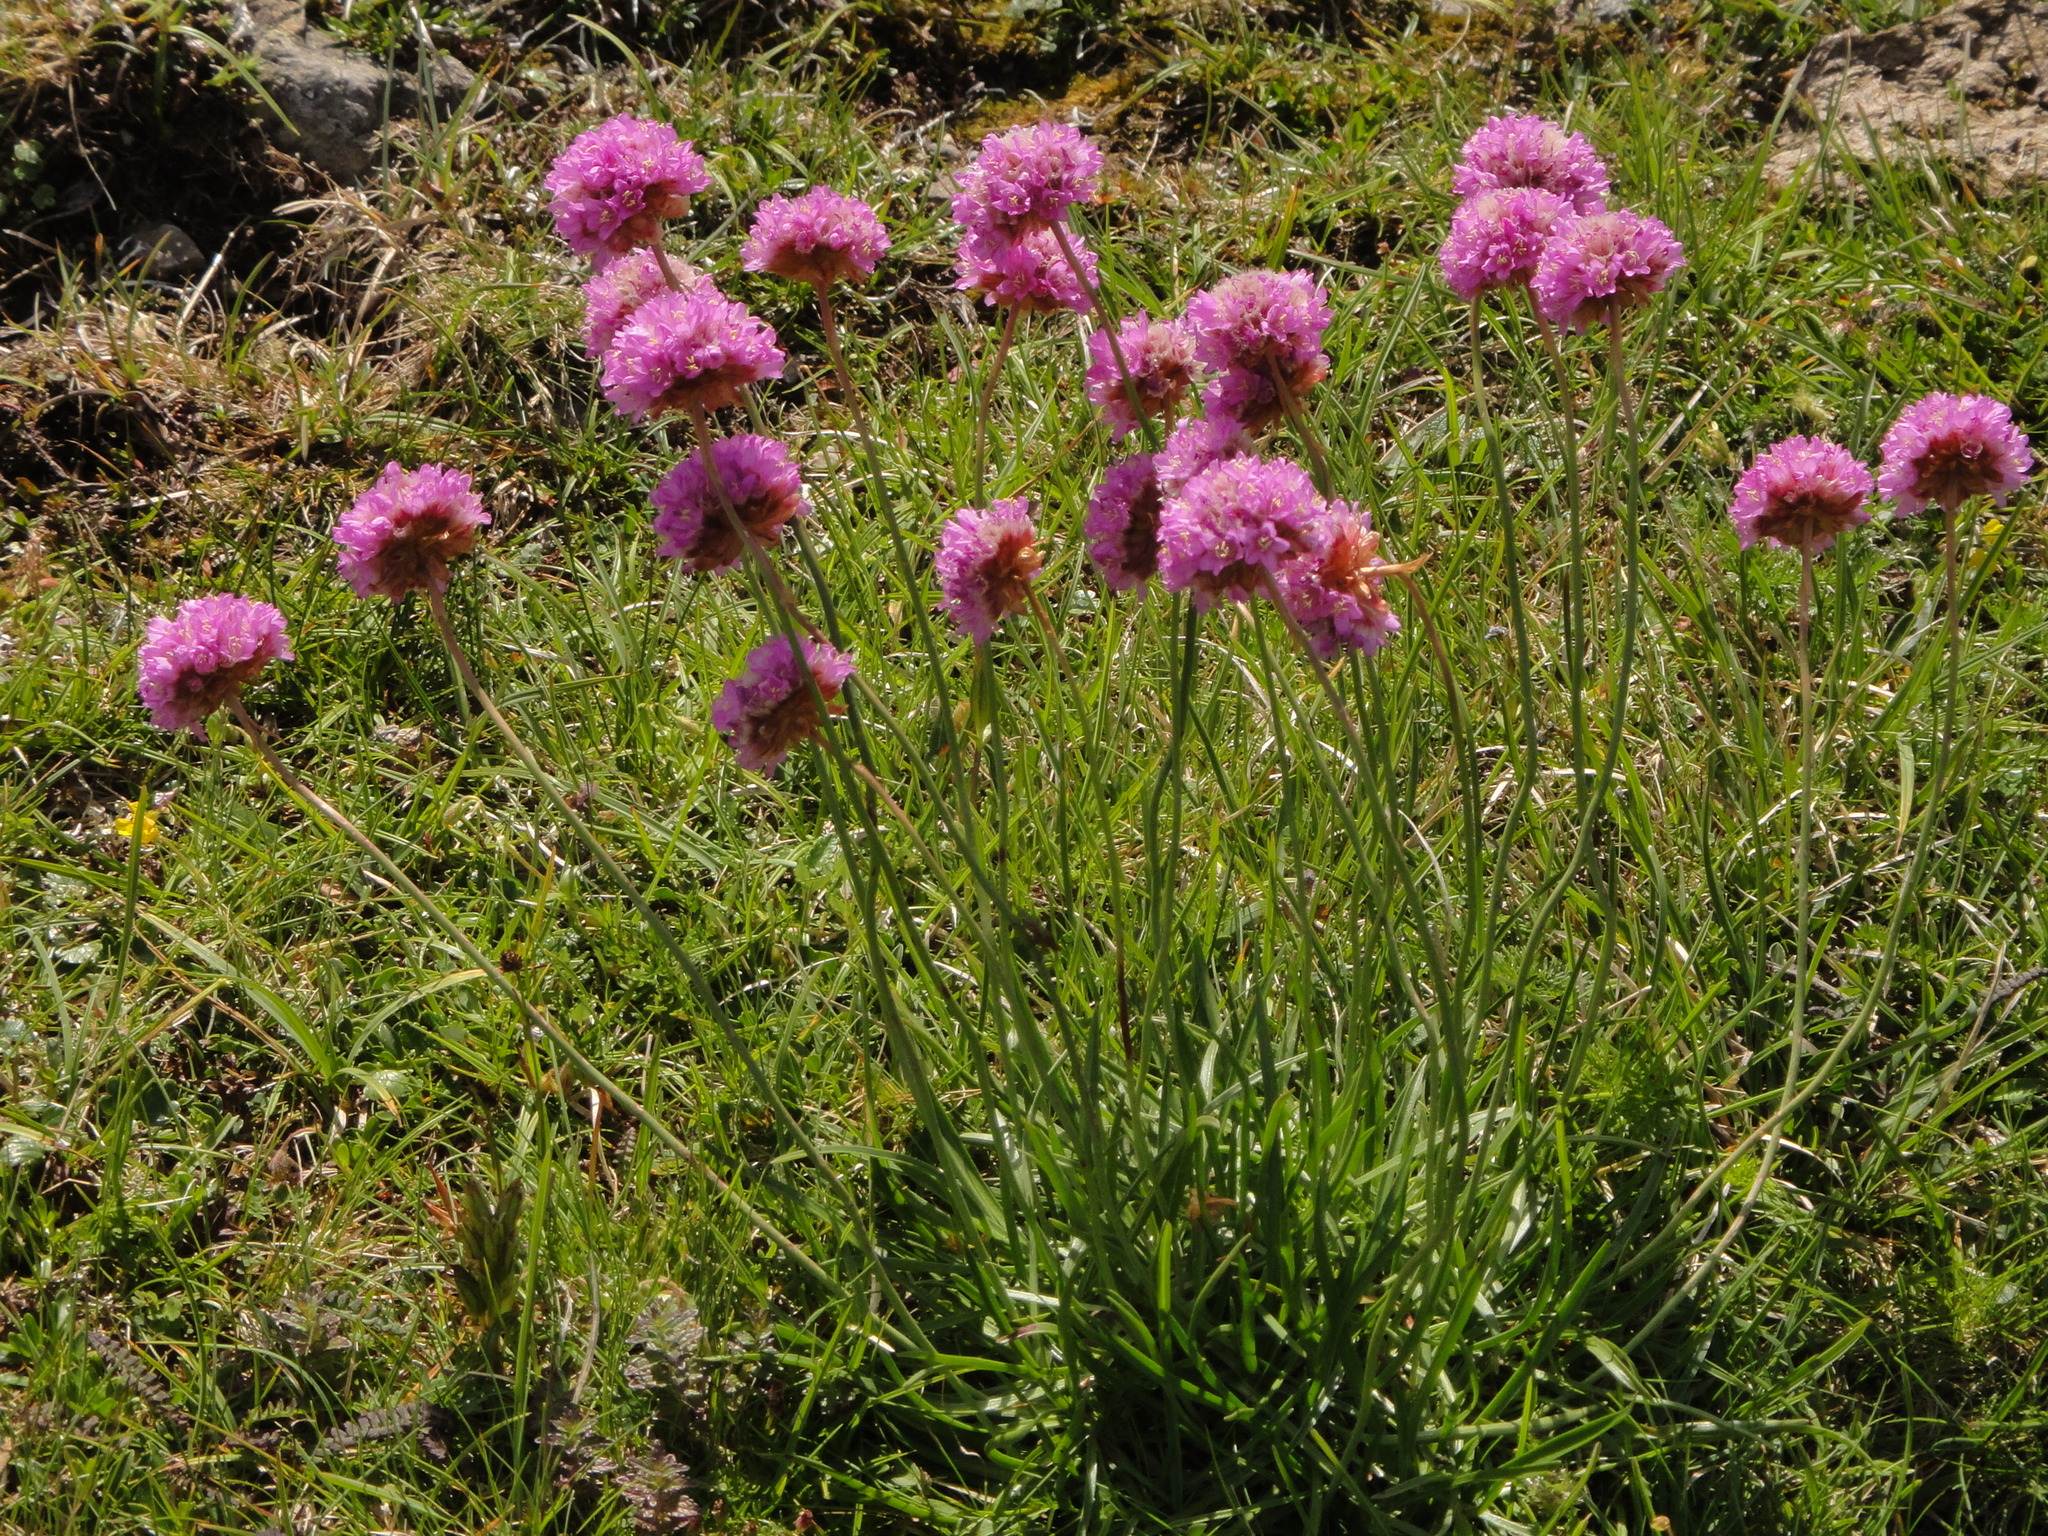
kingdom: Plantae
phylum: Tracheophyta
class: Magnoliopsida
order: Caryophyllales
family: Plumbaginaceae
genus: Armeria
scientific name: Armeria alpina
